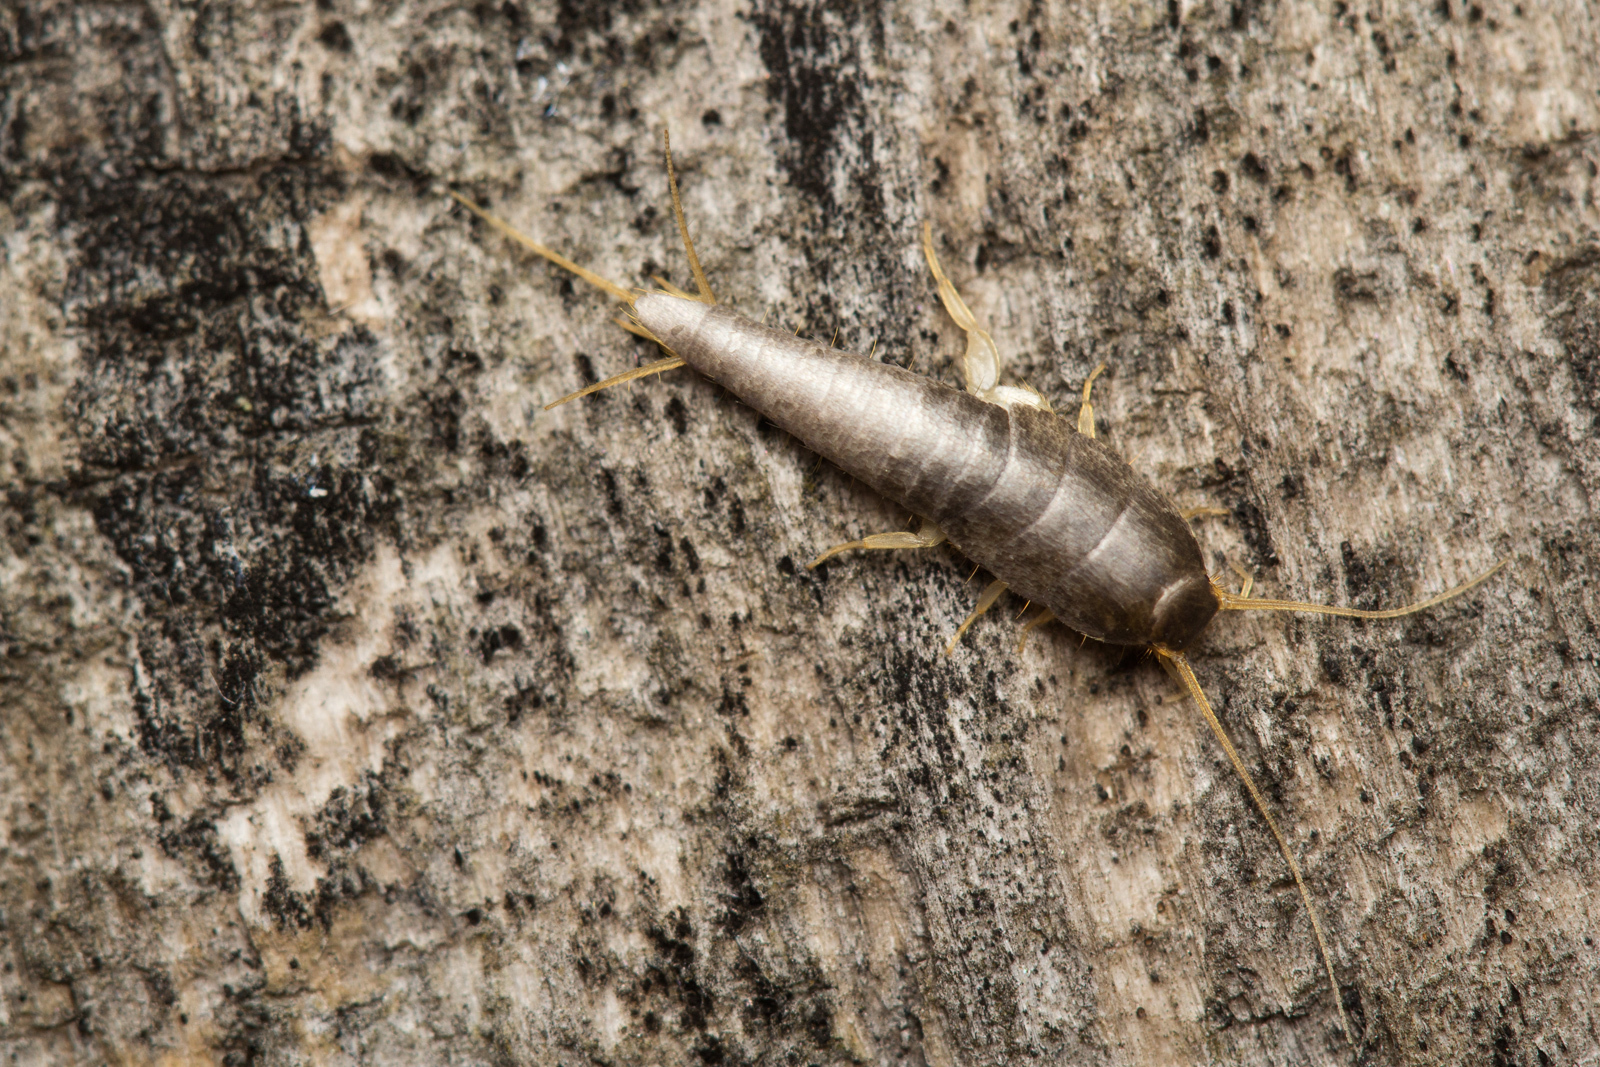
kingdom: Animalia
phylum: Arthropoda
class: Insecta
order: Zygentoma
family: Lepismatidae
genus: Lepisma
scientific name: Lepisma saccharinum
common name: Silverfish
